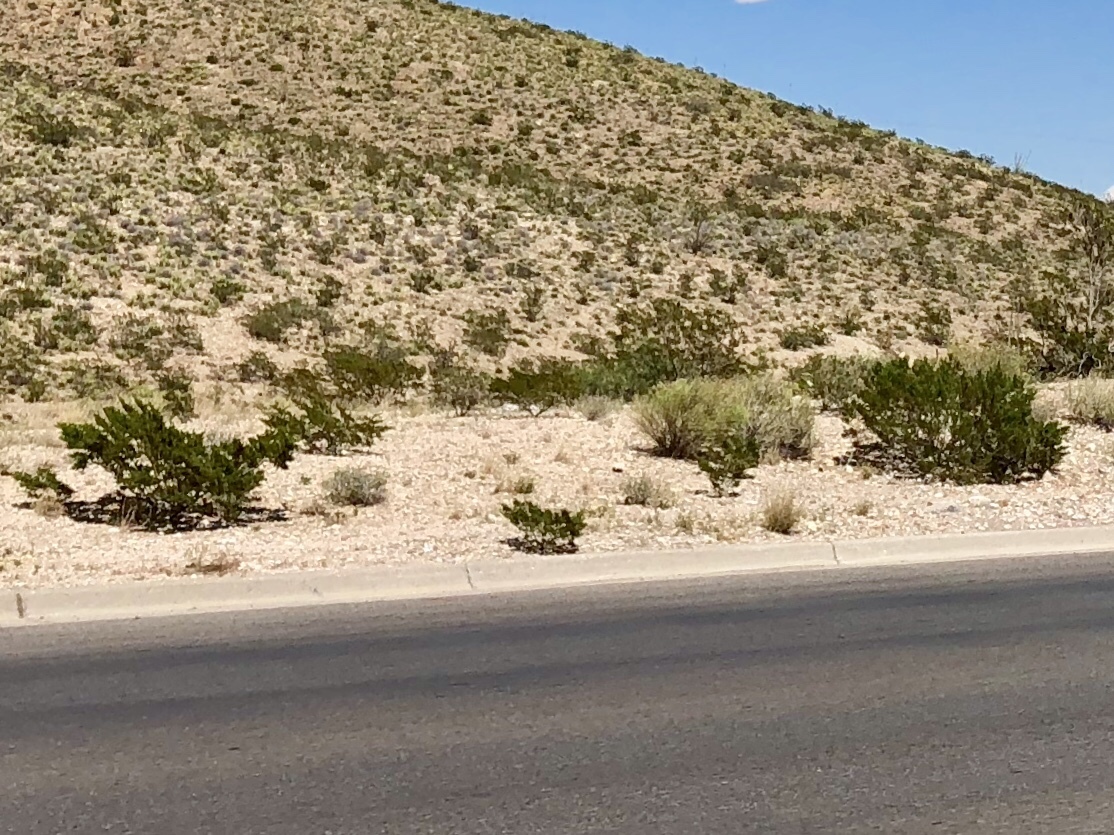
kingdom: Plantae
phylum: Tracheophyta
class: Magnoliopsida
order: Zygophyllales
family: Zygophyllaceae
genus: Larrea
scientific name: Larrea tridentata
